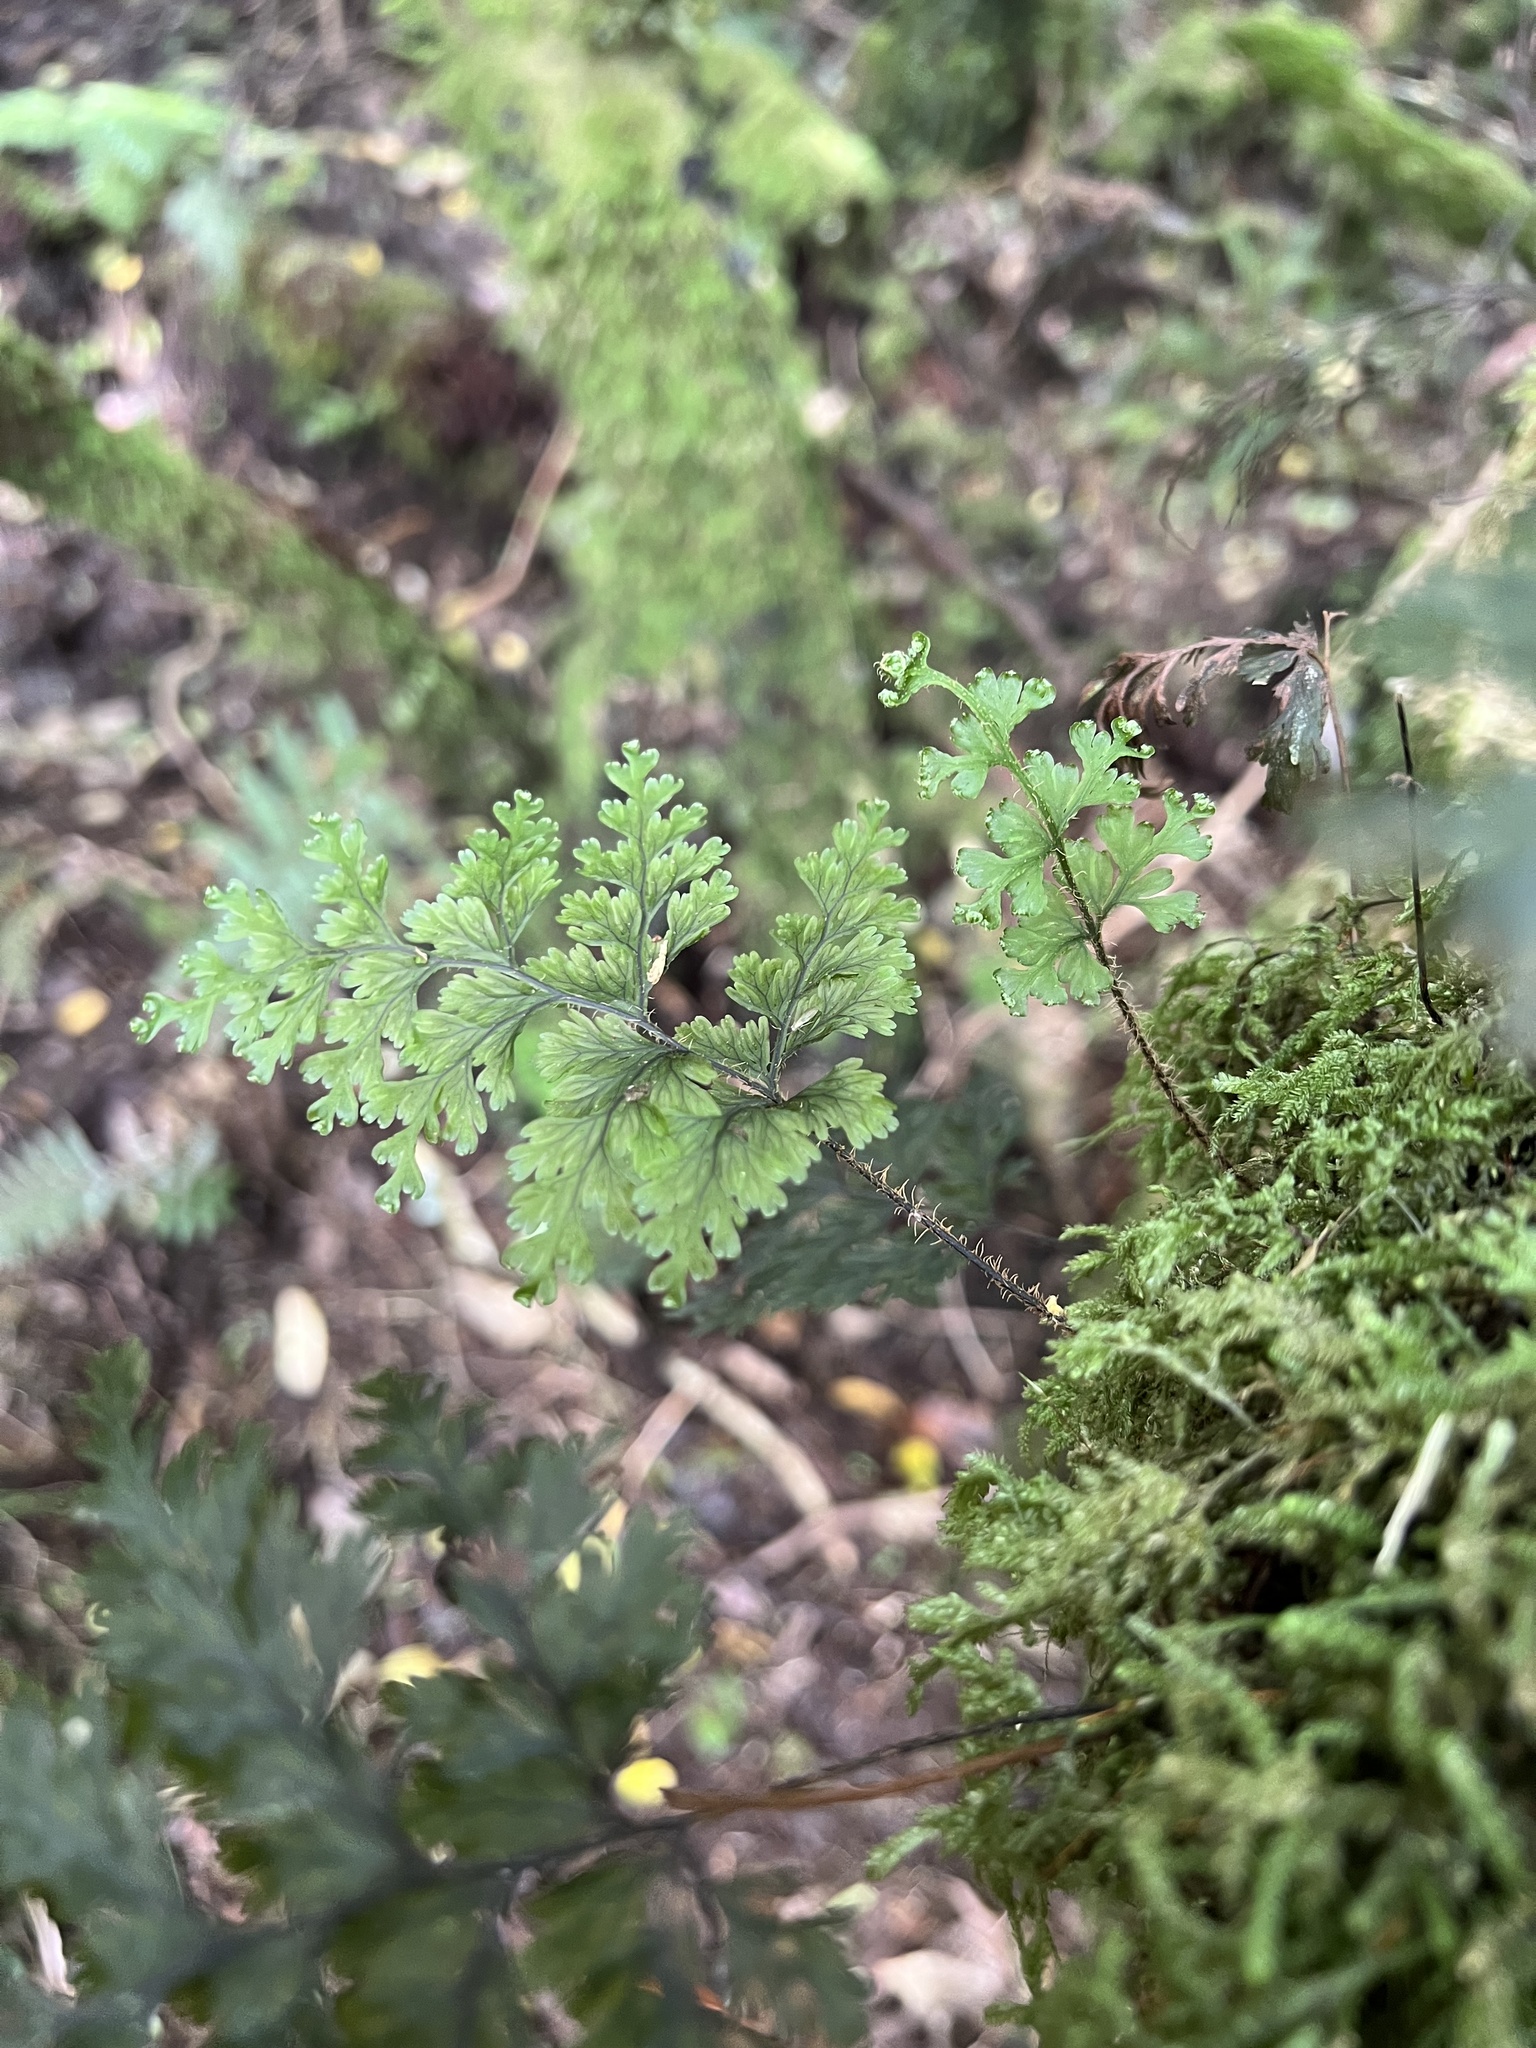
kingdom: Plantae
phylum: Tracheophyta
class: Polypodiopsida
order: Hymenophyllales
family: Hymenophyllaceae
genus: Hymenophyllum
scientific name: Hymenophyllum scabrum
